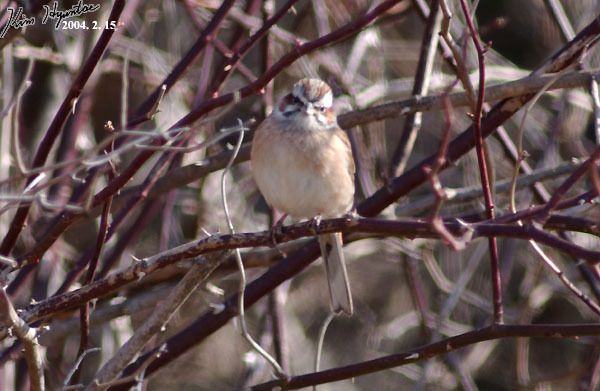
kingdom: Animalia
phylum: Chordata
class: Aves
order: Passeriformes
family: Emberizidae
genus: Emberiza
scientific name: Emberiza cioides
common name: Meadow bunting
